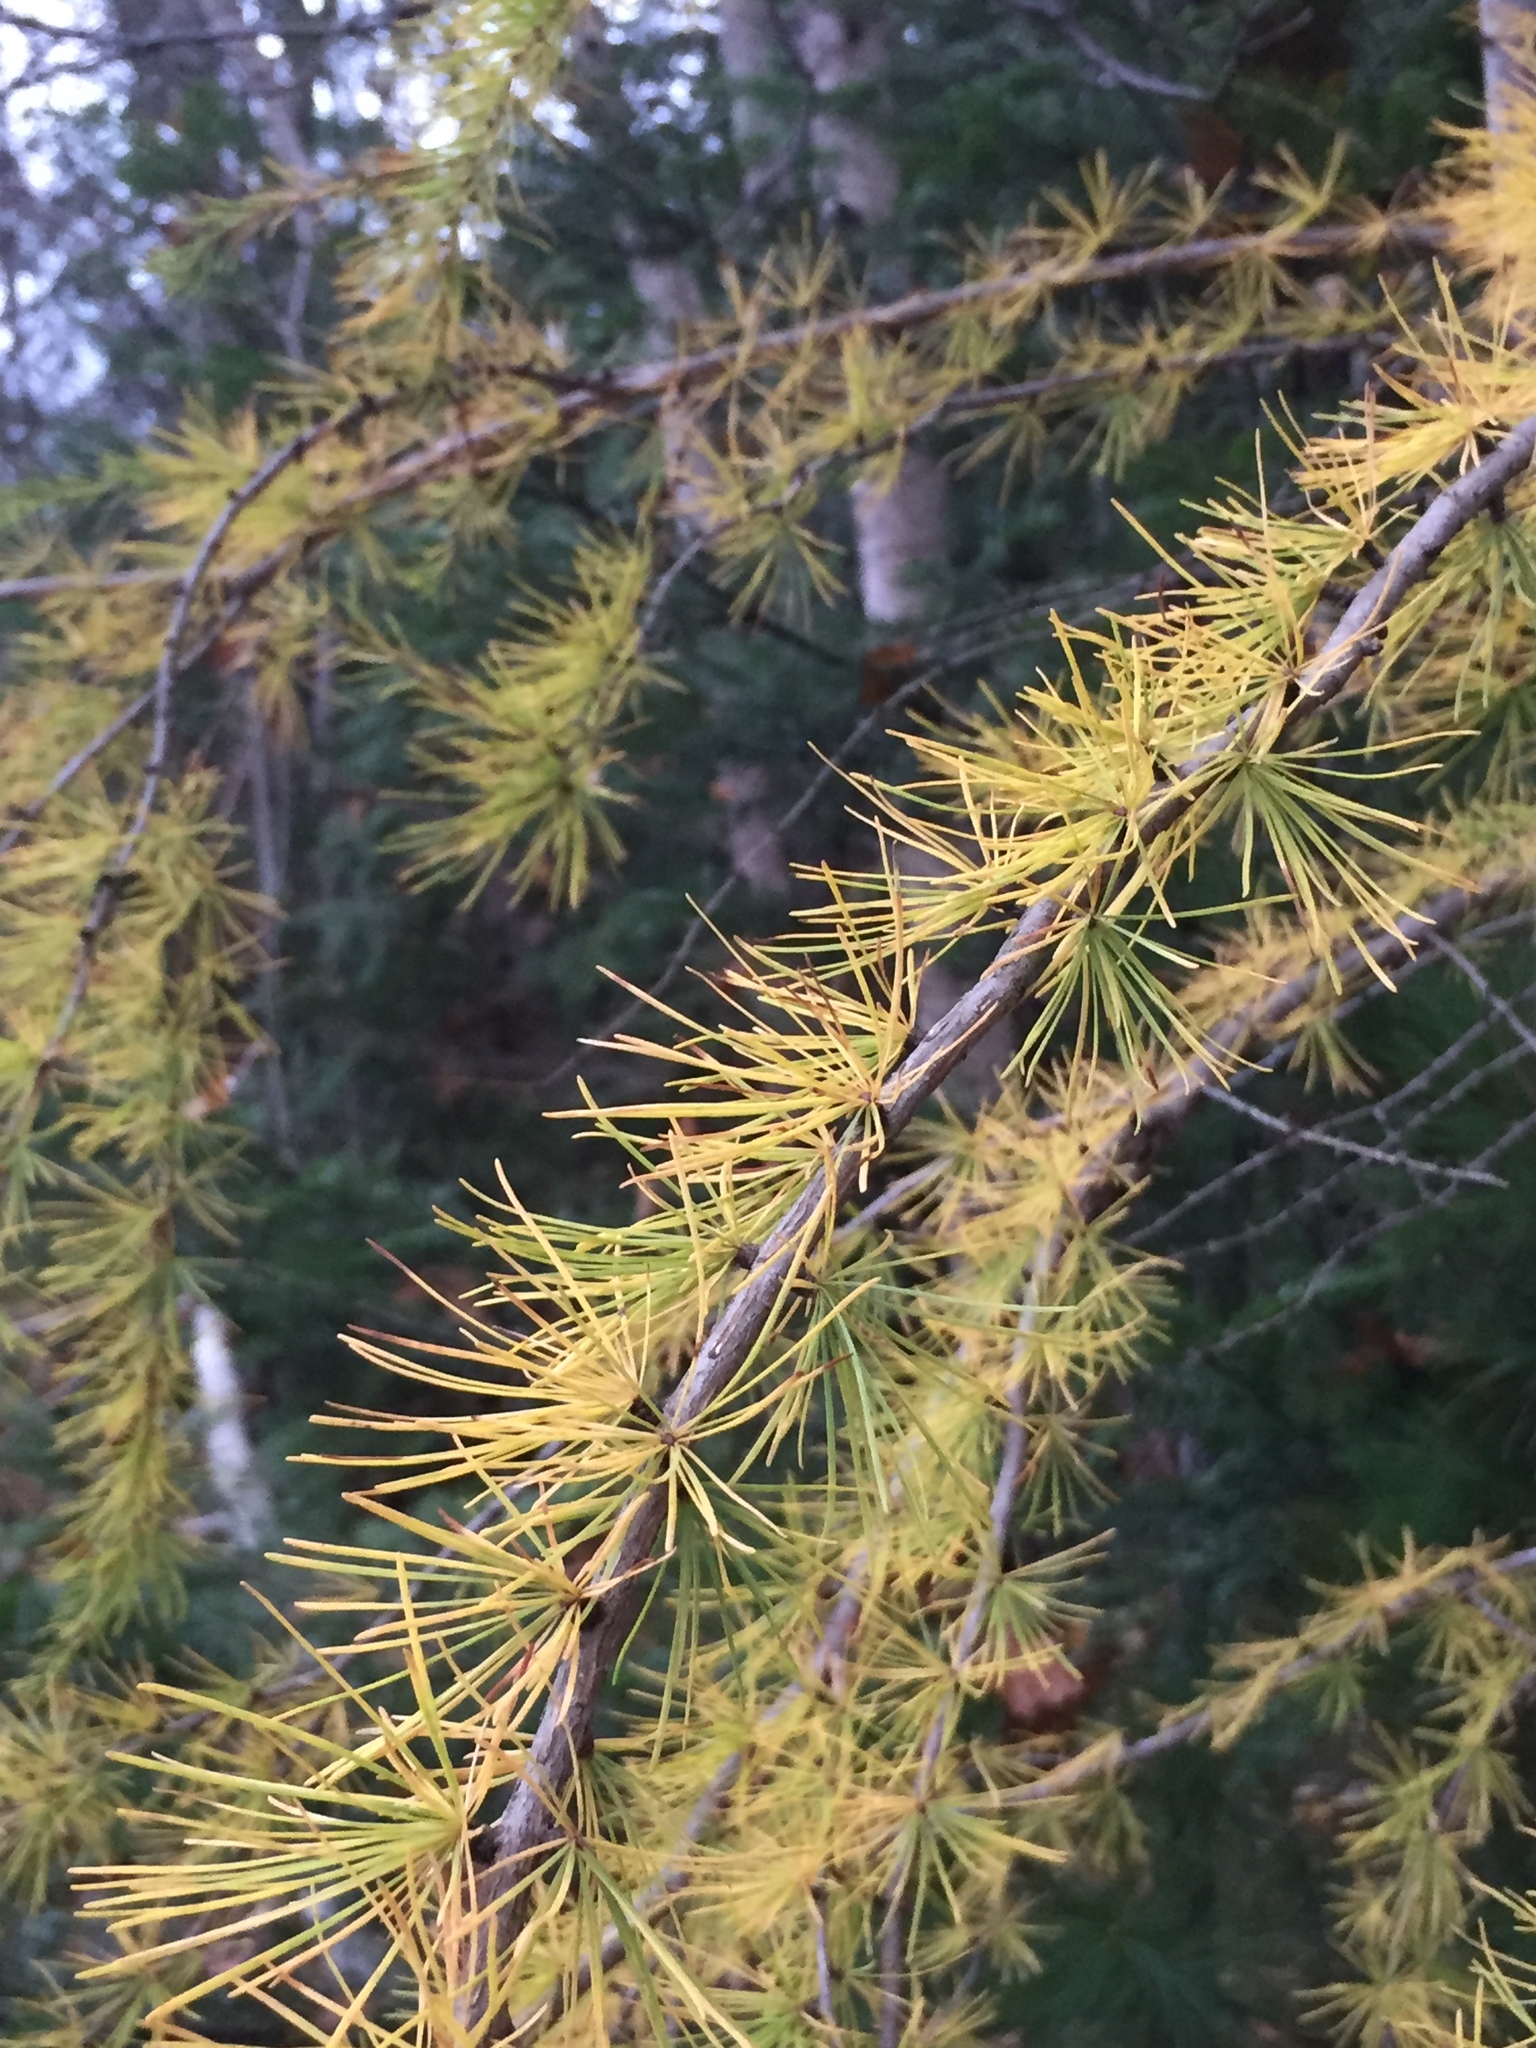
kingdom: Plantae
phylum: Tracheophyta
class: Pinopsida
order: Pinales
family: Pinaceae
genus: Larix
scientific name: Larix laricina
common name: American larch
